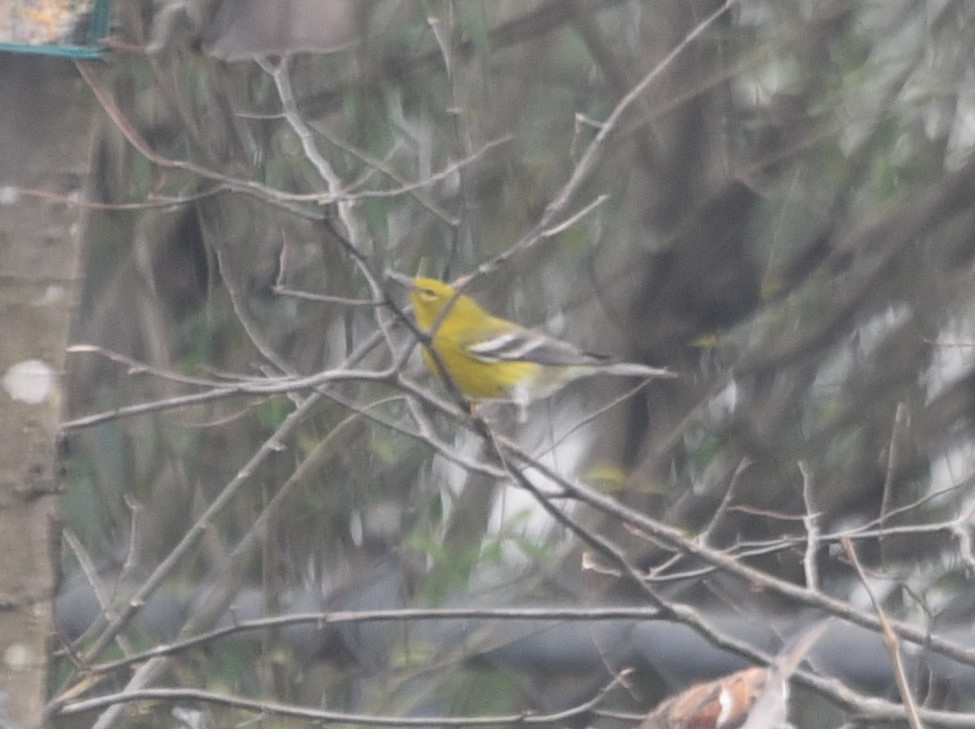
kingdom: Animalia
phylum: Chordata
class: Aves
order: Passeriformes
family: Parulidae
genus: Setophaga
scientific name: Setophaga pinus
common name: Pine warbler
